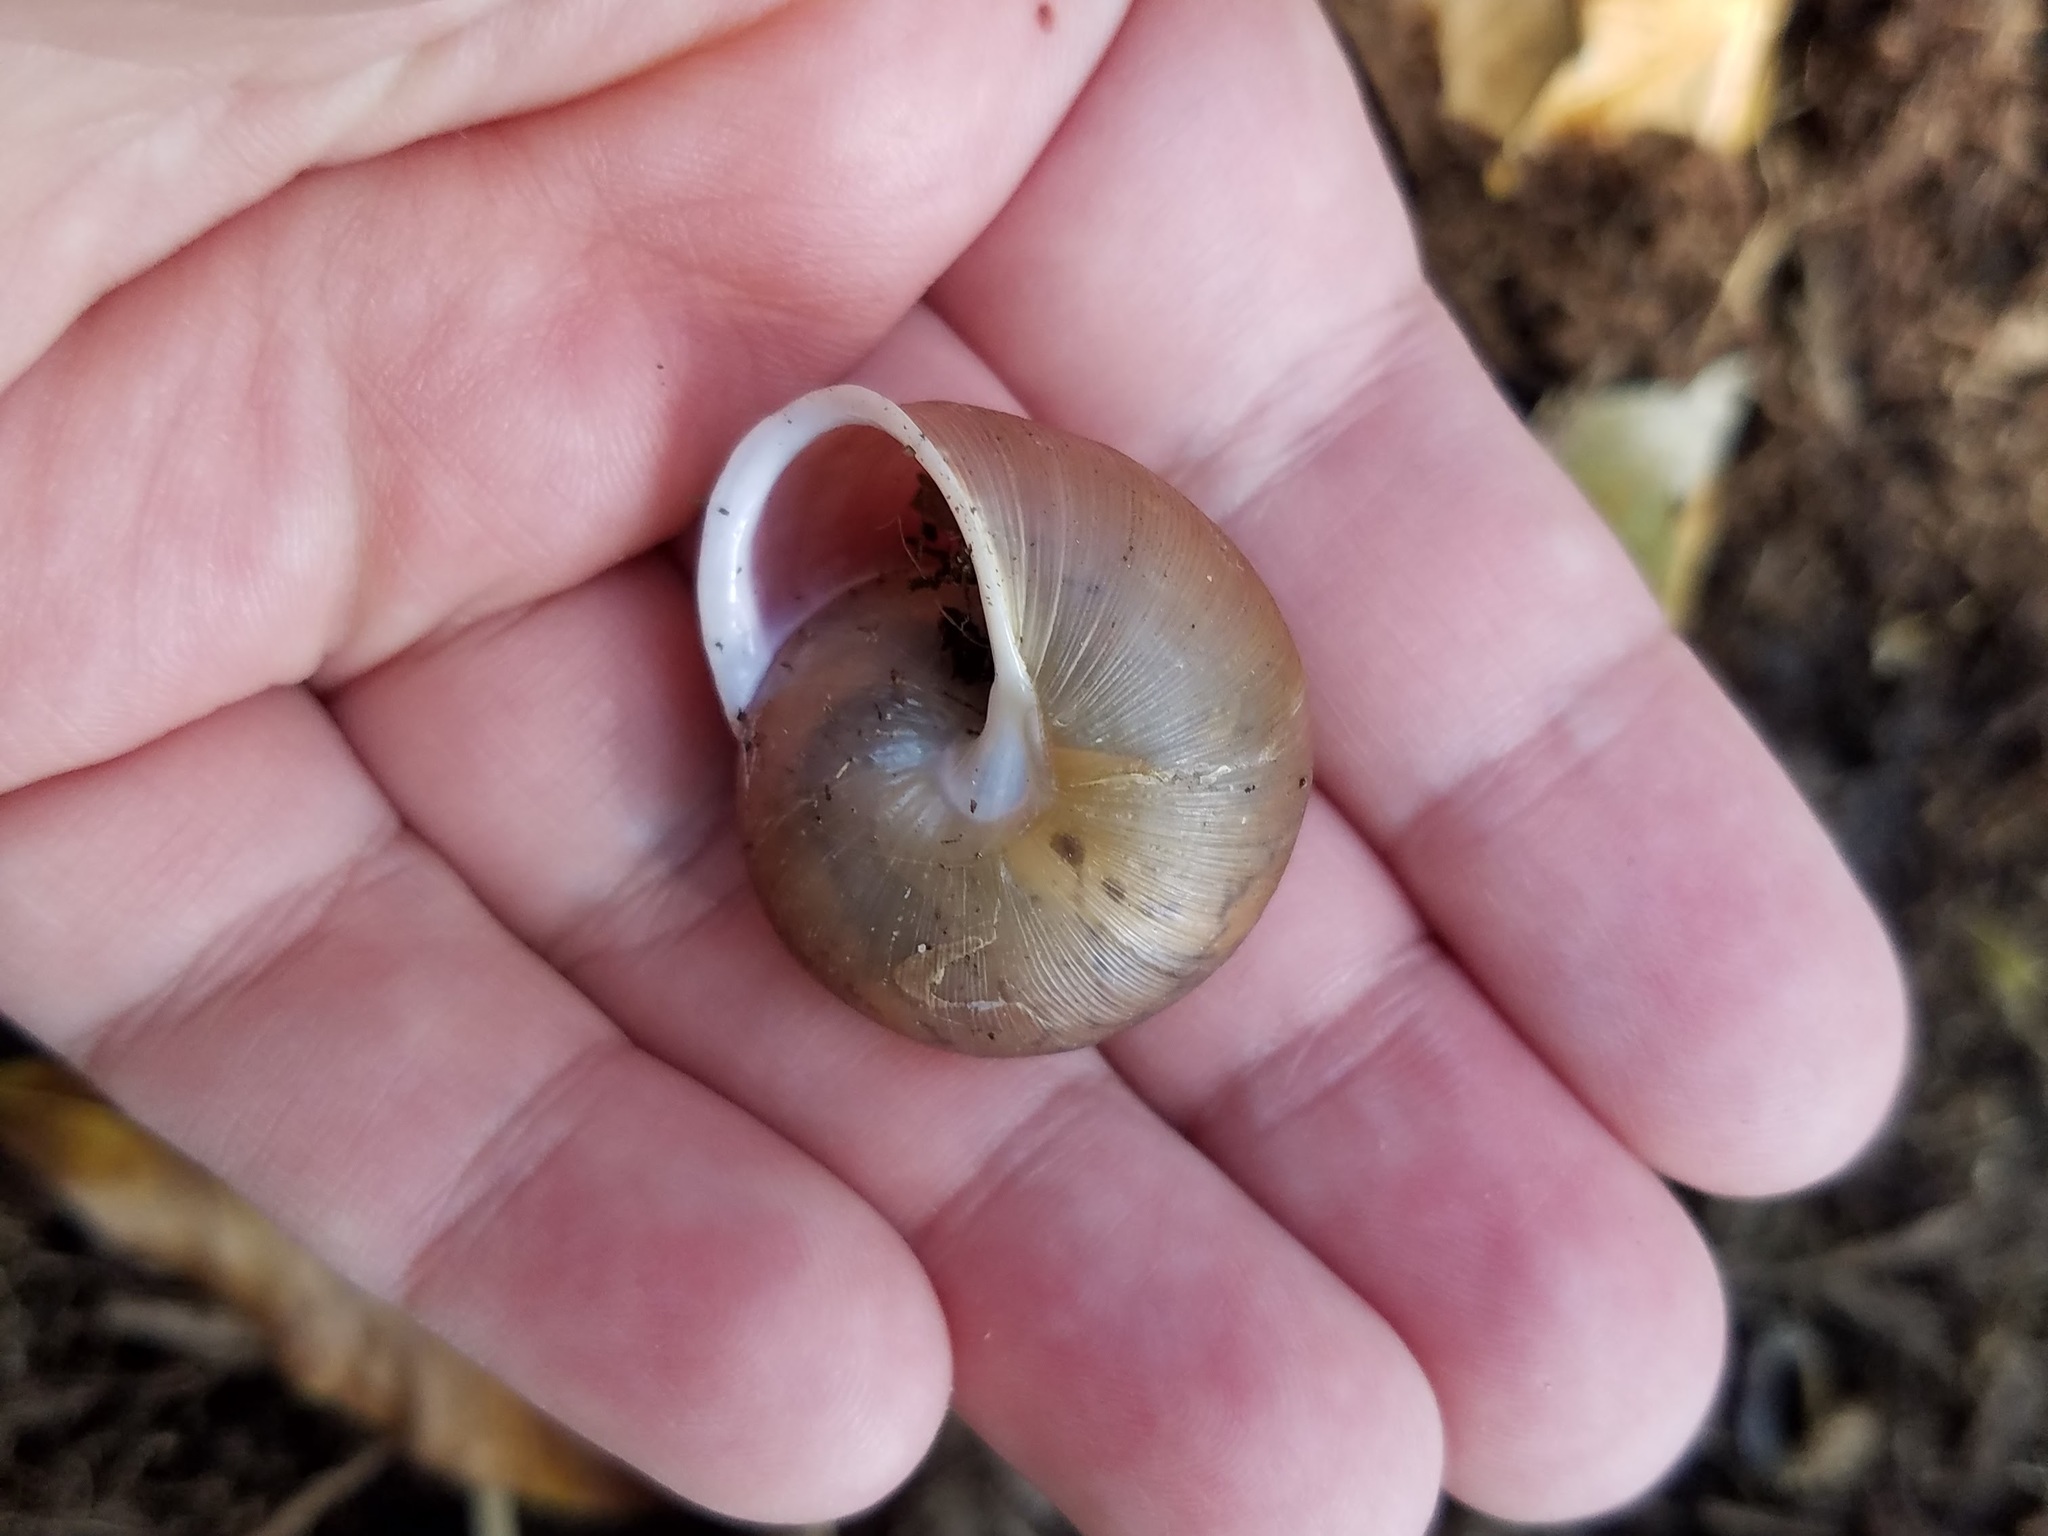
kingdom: Animalia
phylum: Mollusca
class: Gastropoda
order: Stylommatophora
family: Polygyridae
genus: Neohelix
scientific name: Neohelix albolabris
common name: Eastern whitelip
